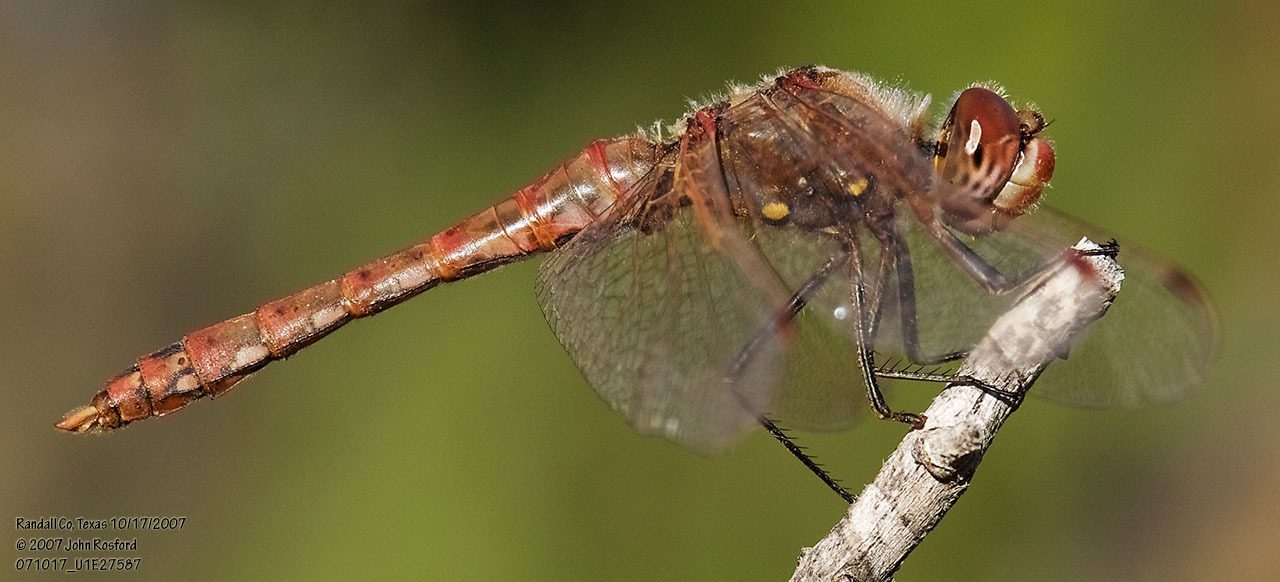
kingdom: Animalia
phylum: Arthropoda
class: Insecta
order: Odonata
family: Libellulidae
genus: Sympetrum
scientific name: Sympetrum corruptum
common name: Variegated meadowhawk
